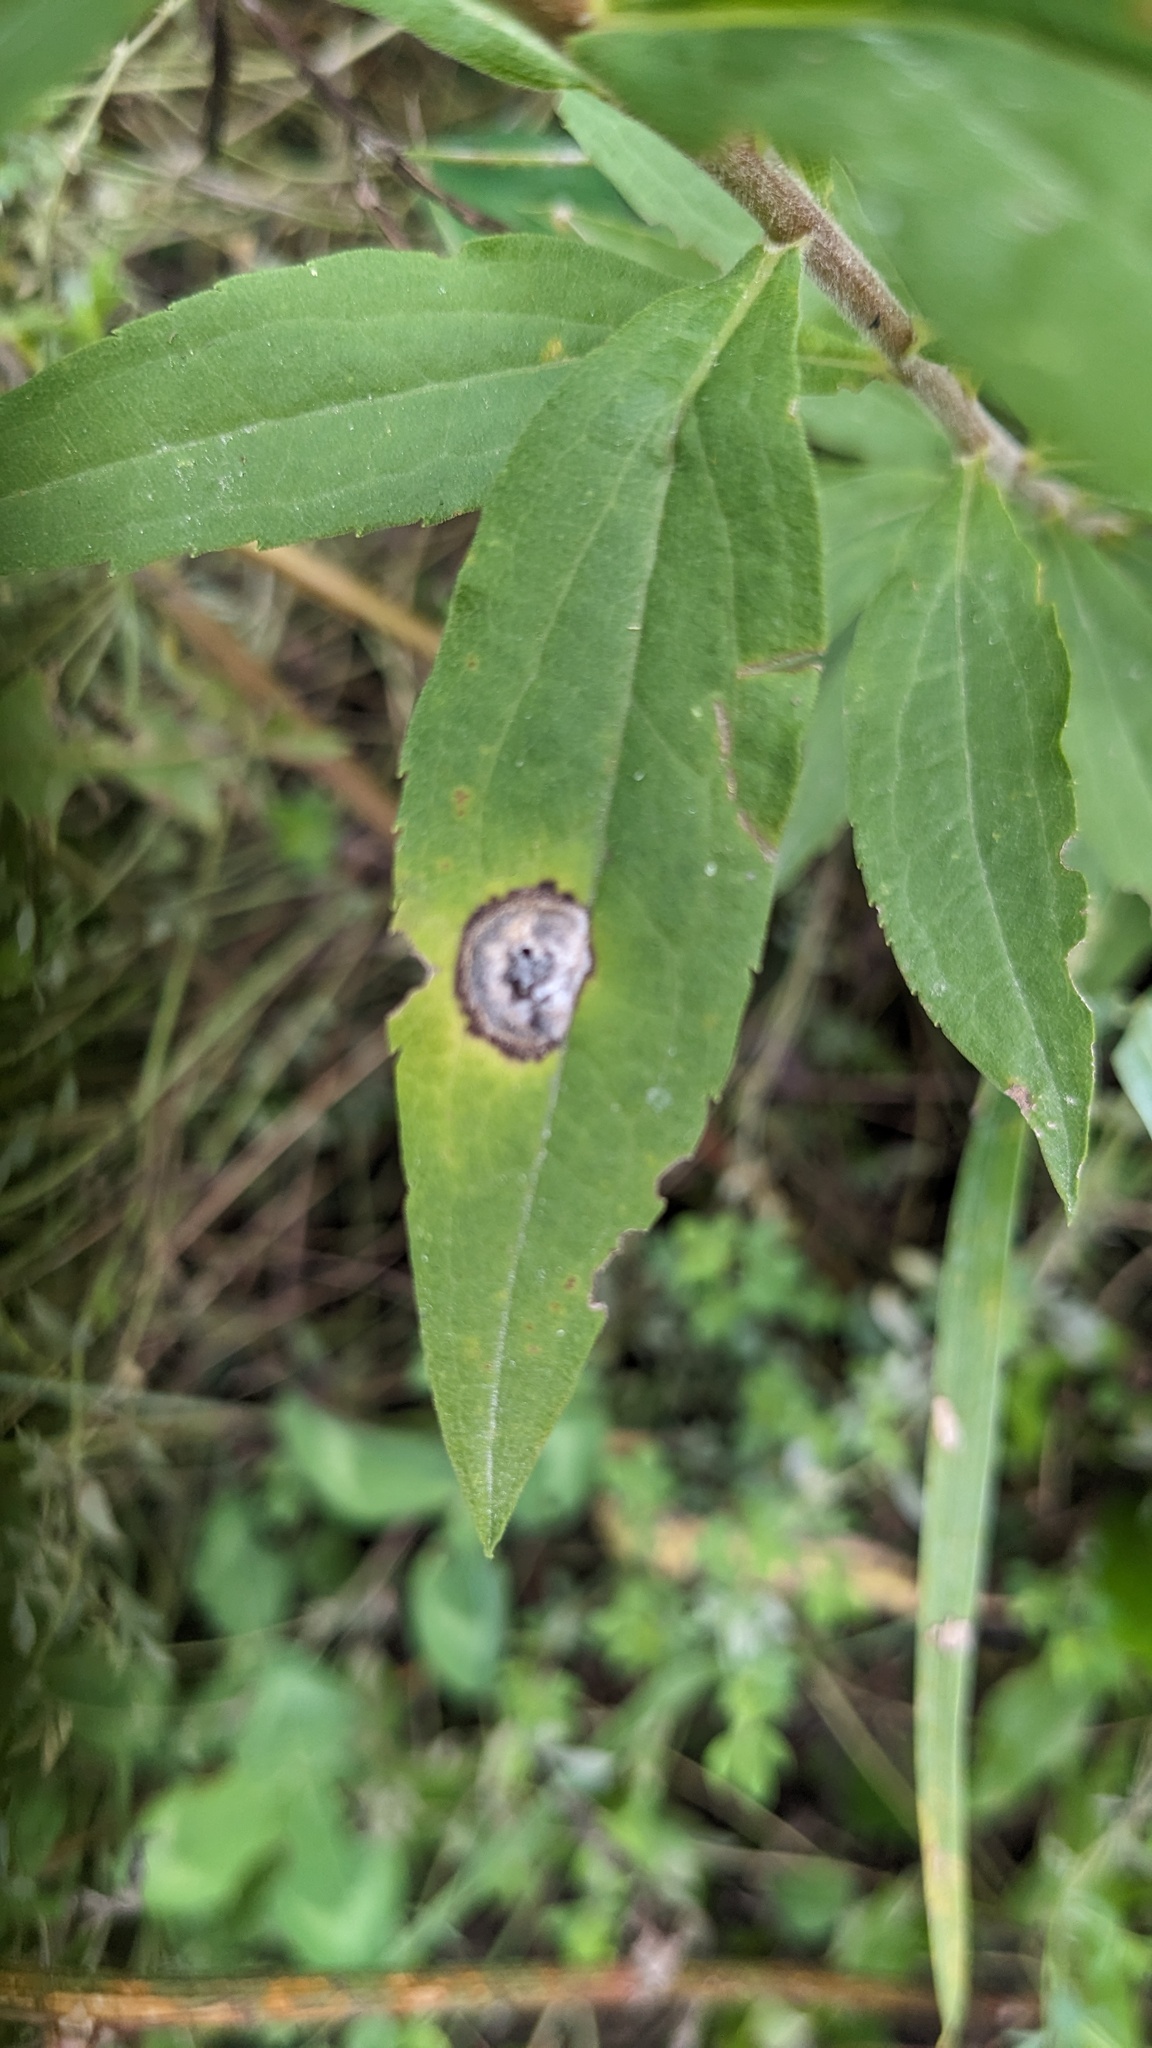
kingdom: Animalia
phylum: Arthropoda
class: Insecta
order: Diptera
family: Cecidomyiidae
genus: Asteromyia
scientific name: Asteromyia carbonifera
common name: Carbonifera goldenrod gall midge
